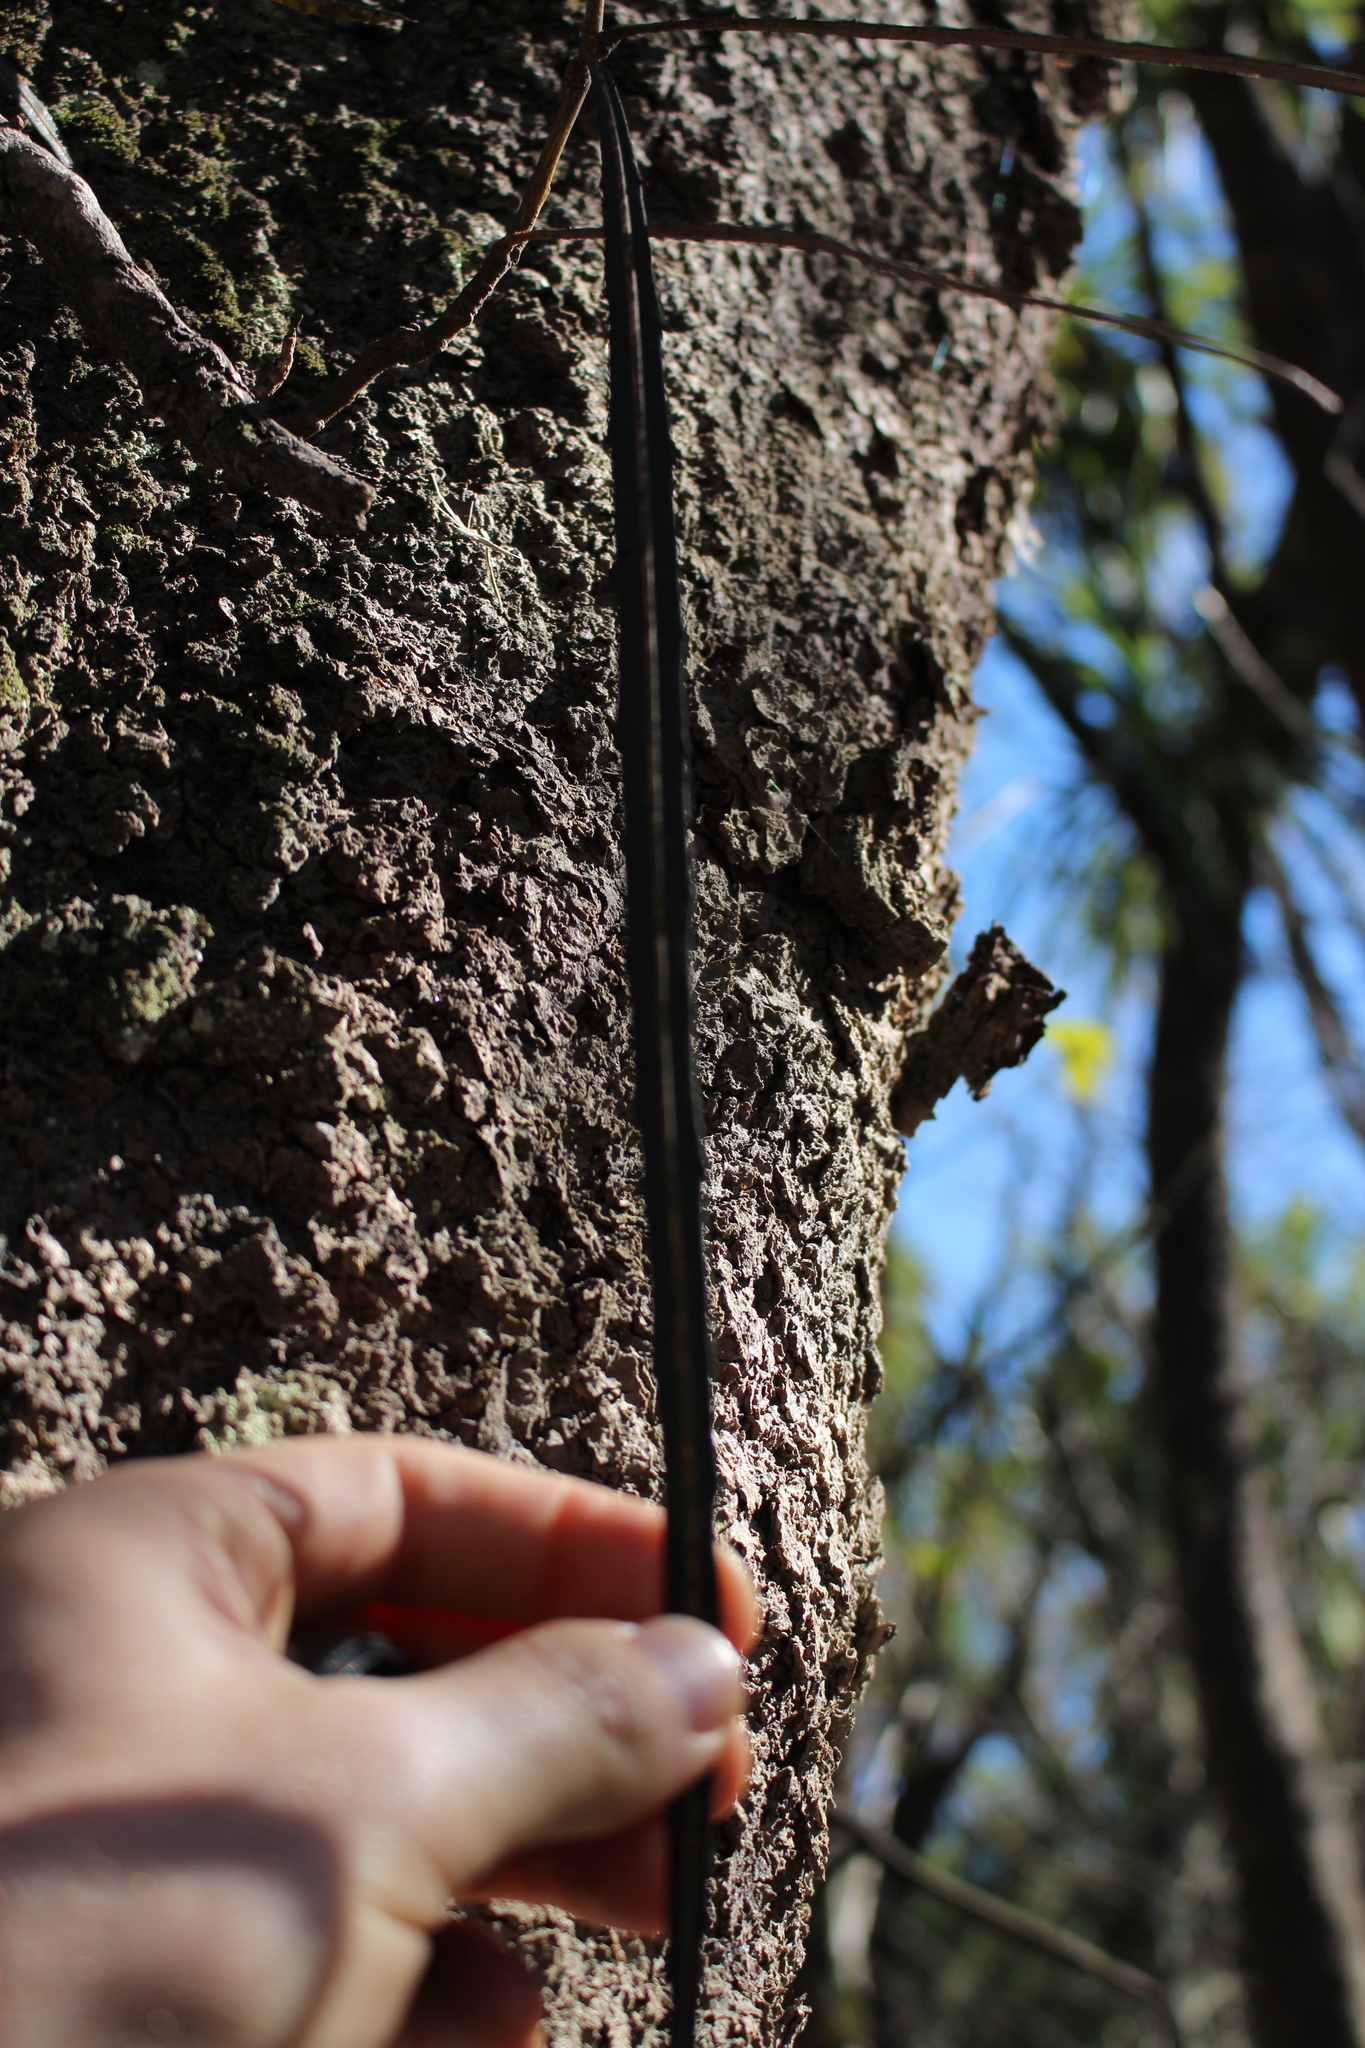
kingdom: Plantae
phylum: Tracheophyta
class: Magnoliopsida
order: Apiales
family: Araliaceae
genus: Pseudopanax
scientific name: Pseudopanax crassifolius
